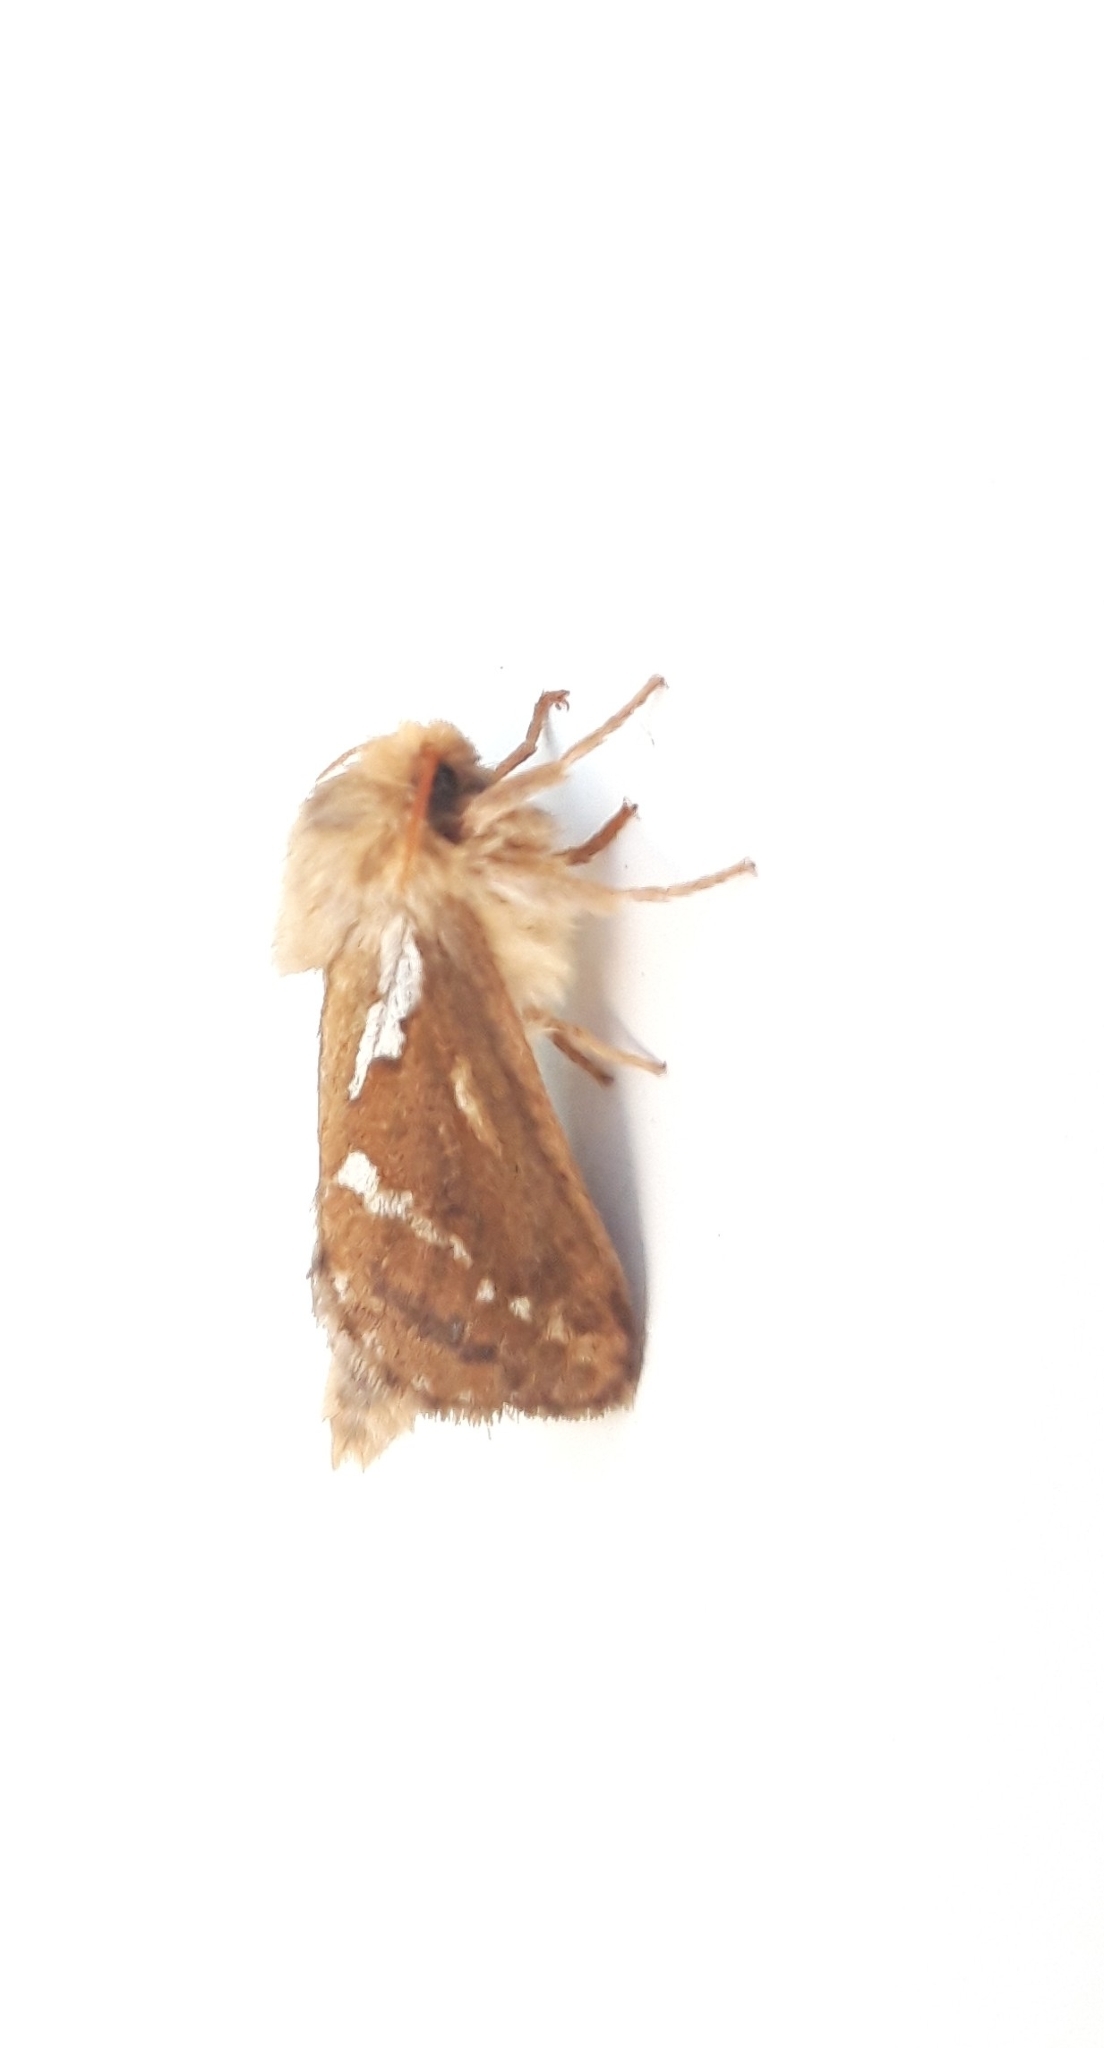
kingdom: Animalia
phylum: Arthropoda
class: Insecta
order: Lepidoptera
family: Hepialidae
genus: Korscheltellus
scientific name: Korscheltellus lupulina
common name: Common swift
